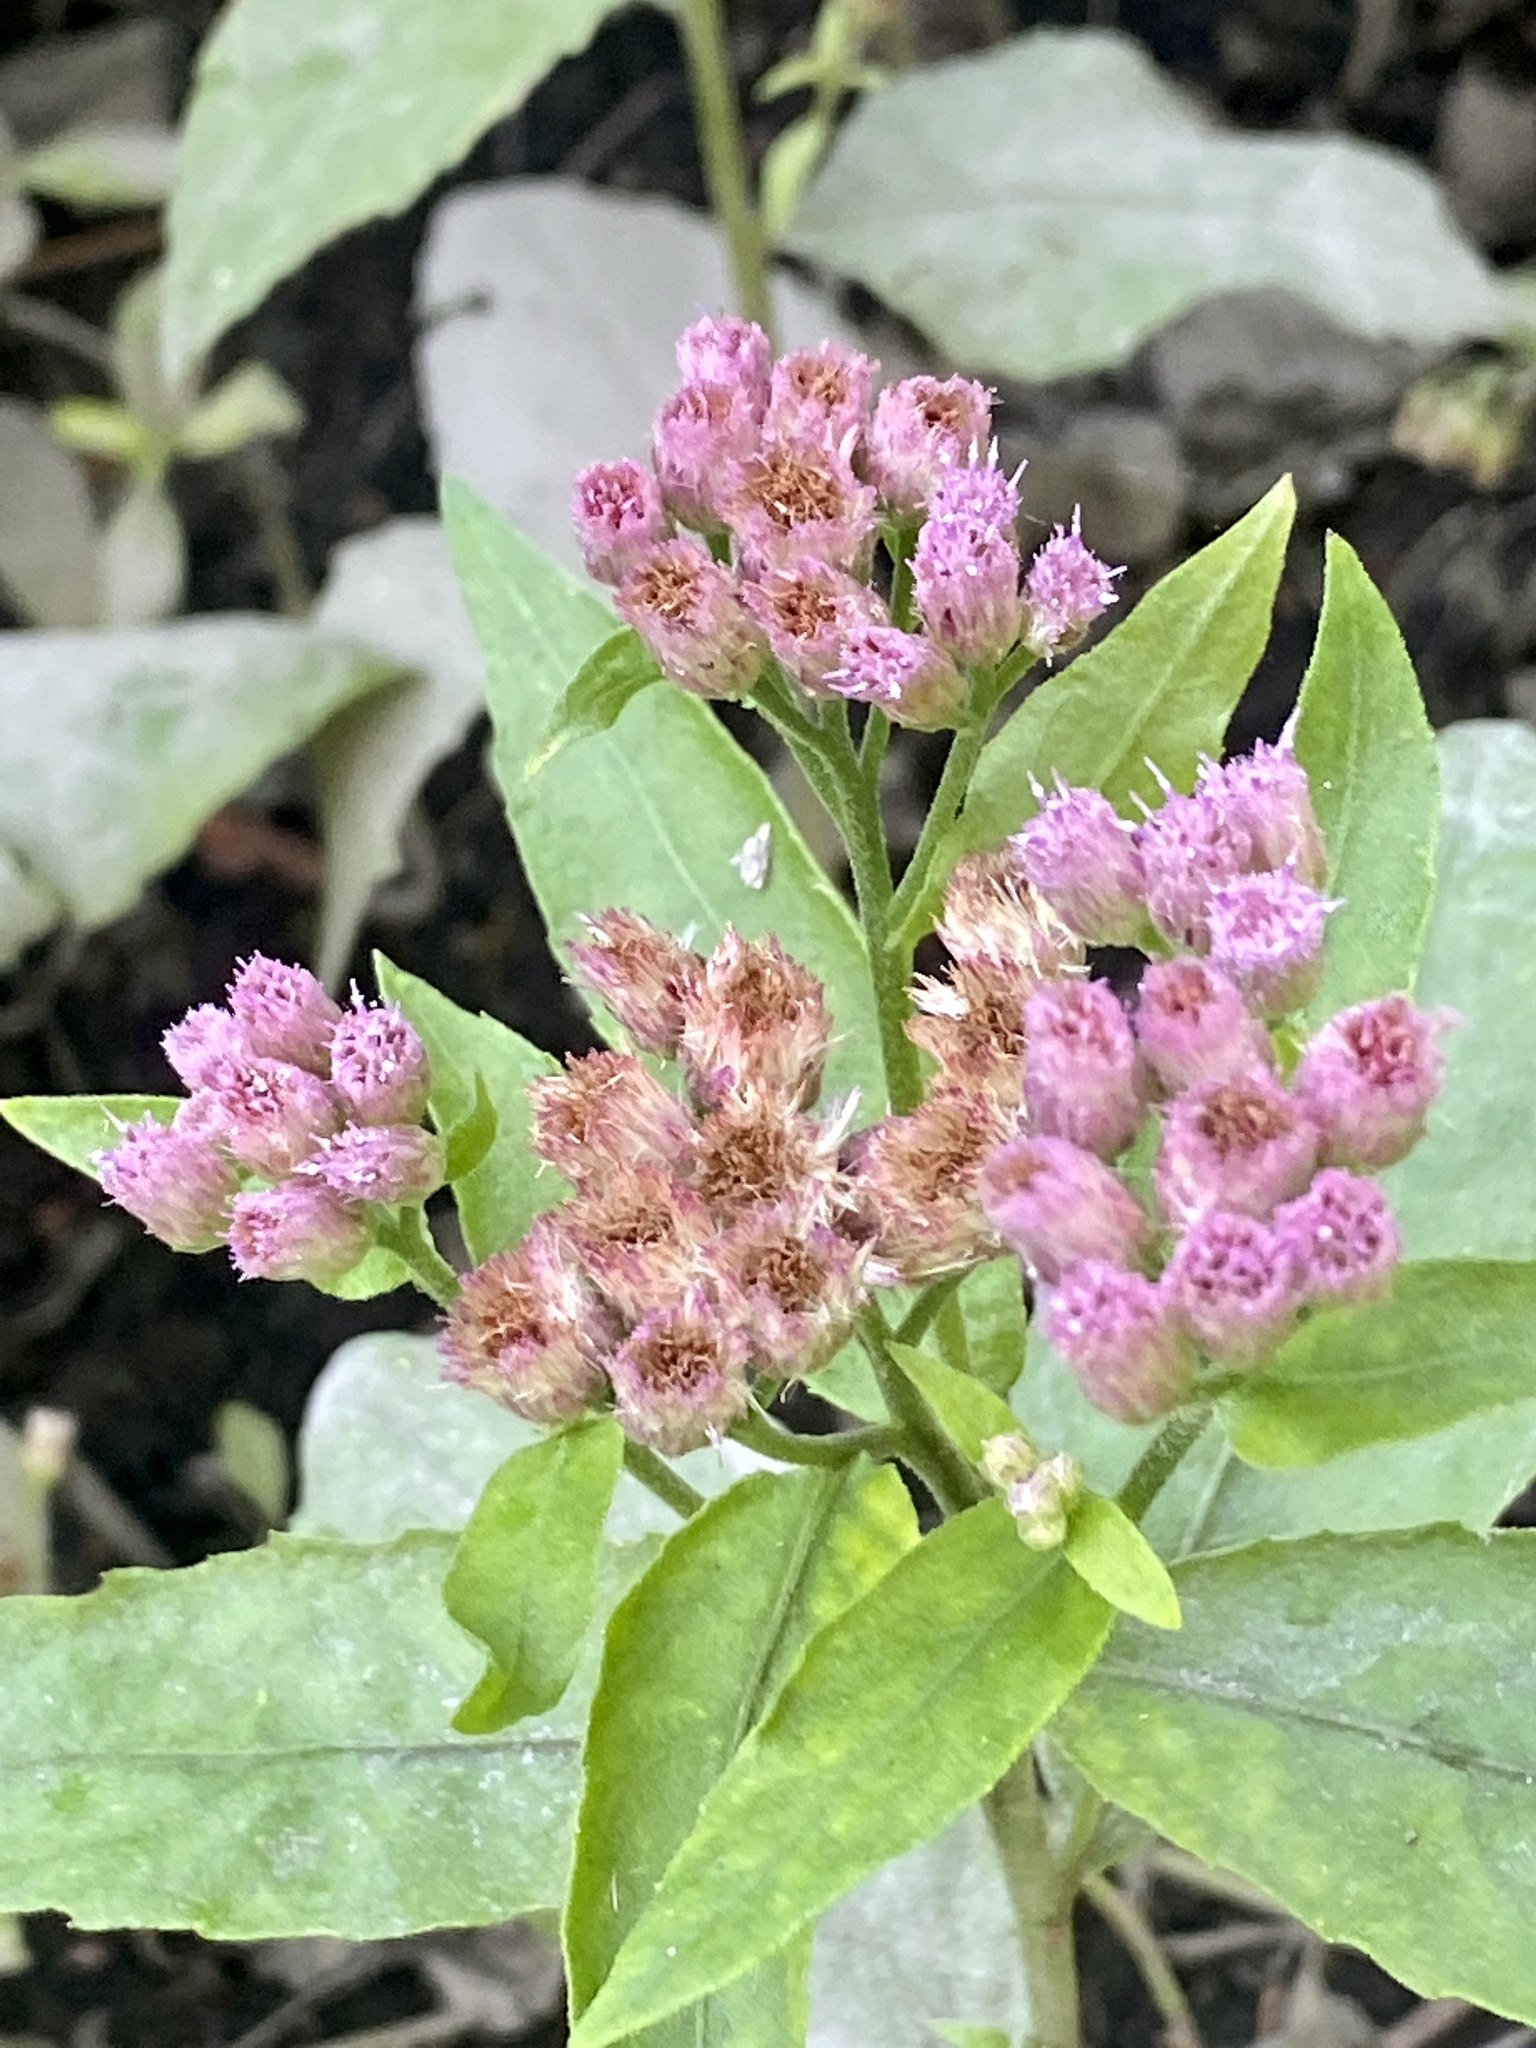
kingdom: Plantae
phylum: Tracheophyta
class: Magnoliopsida
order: Asterales
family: Asteraceae
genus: Pluchea
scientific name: Pluchea odorata
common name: Saltmarsh fleabane
